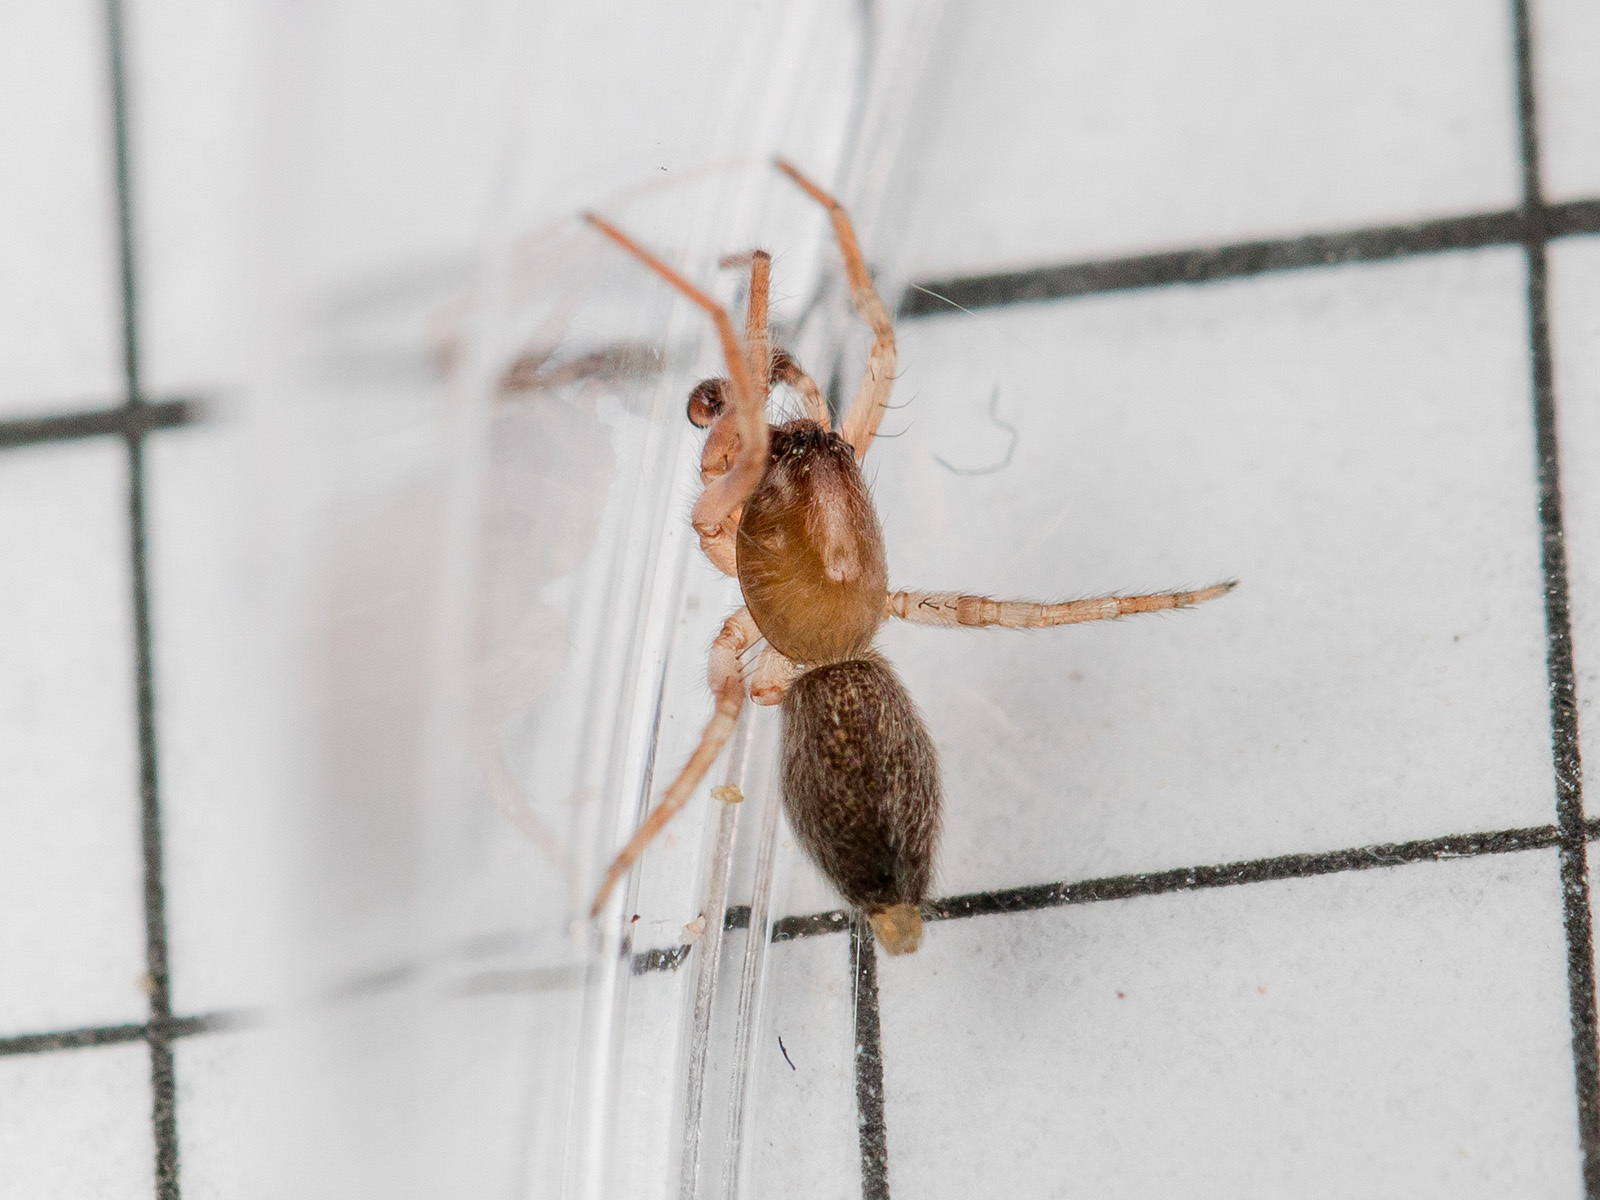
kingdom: Animalia
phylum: Arthropoda
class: Arachnida
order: Araneae
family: Clubionidae
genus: Porrhoclubiona
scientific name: Porrhoclubiona laudata
